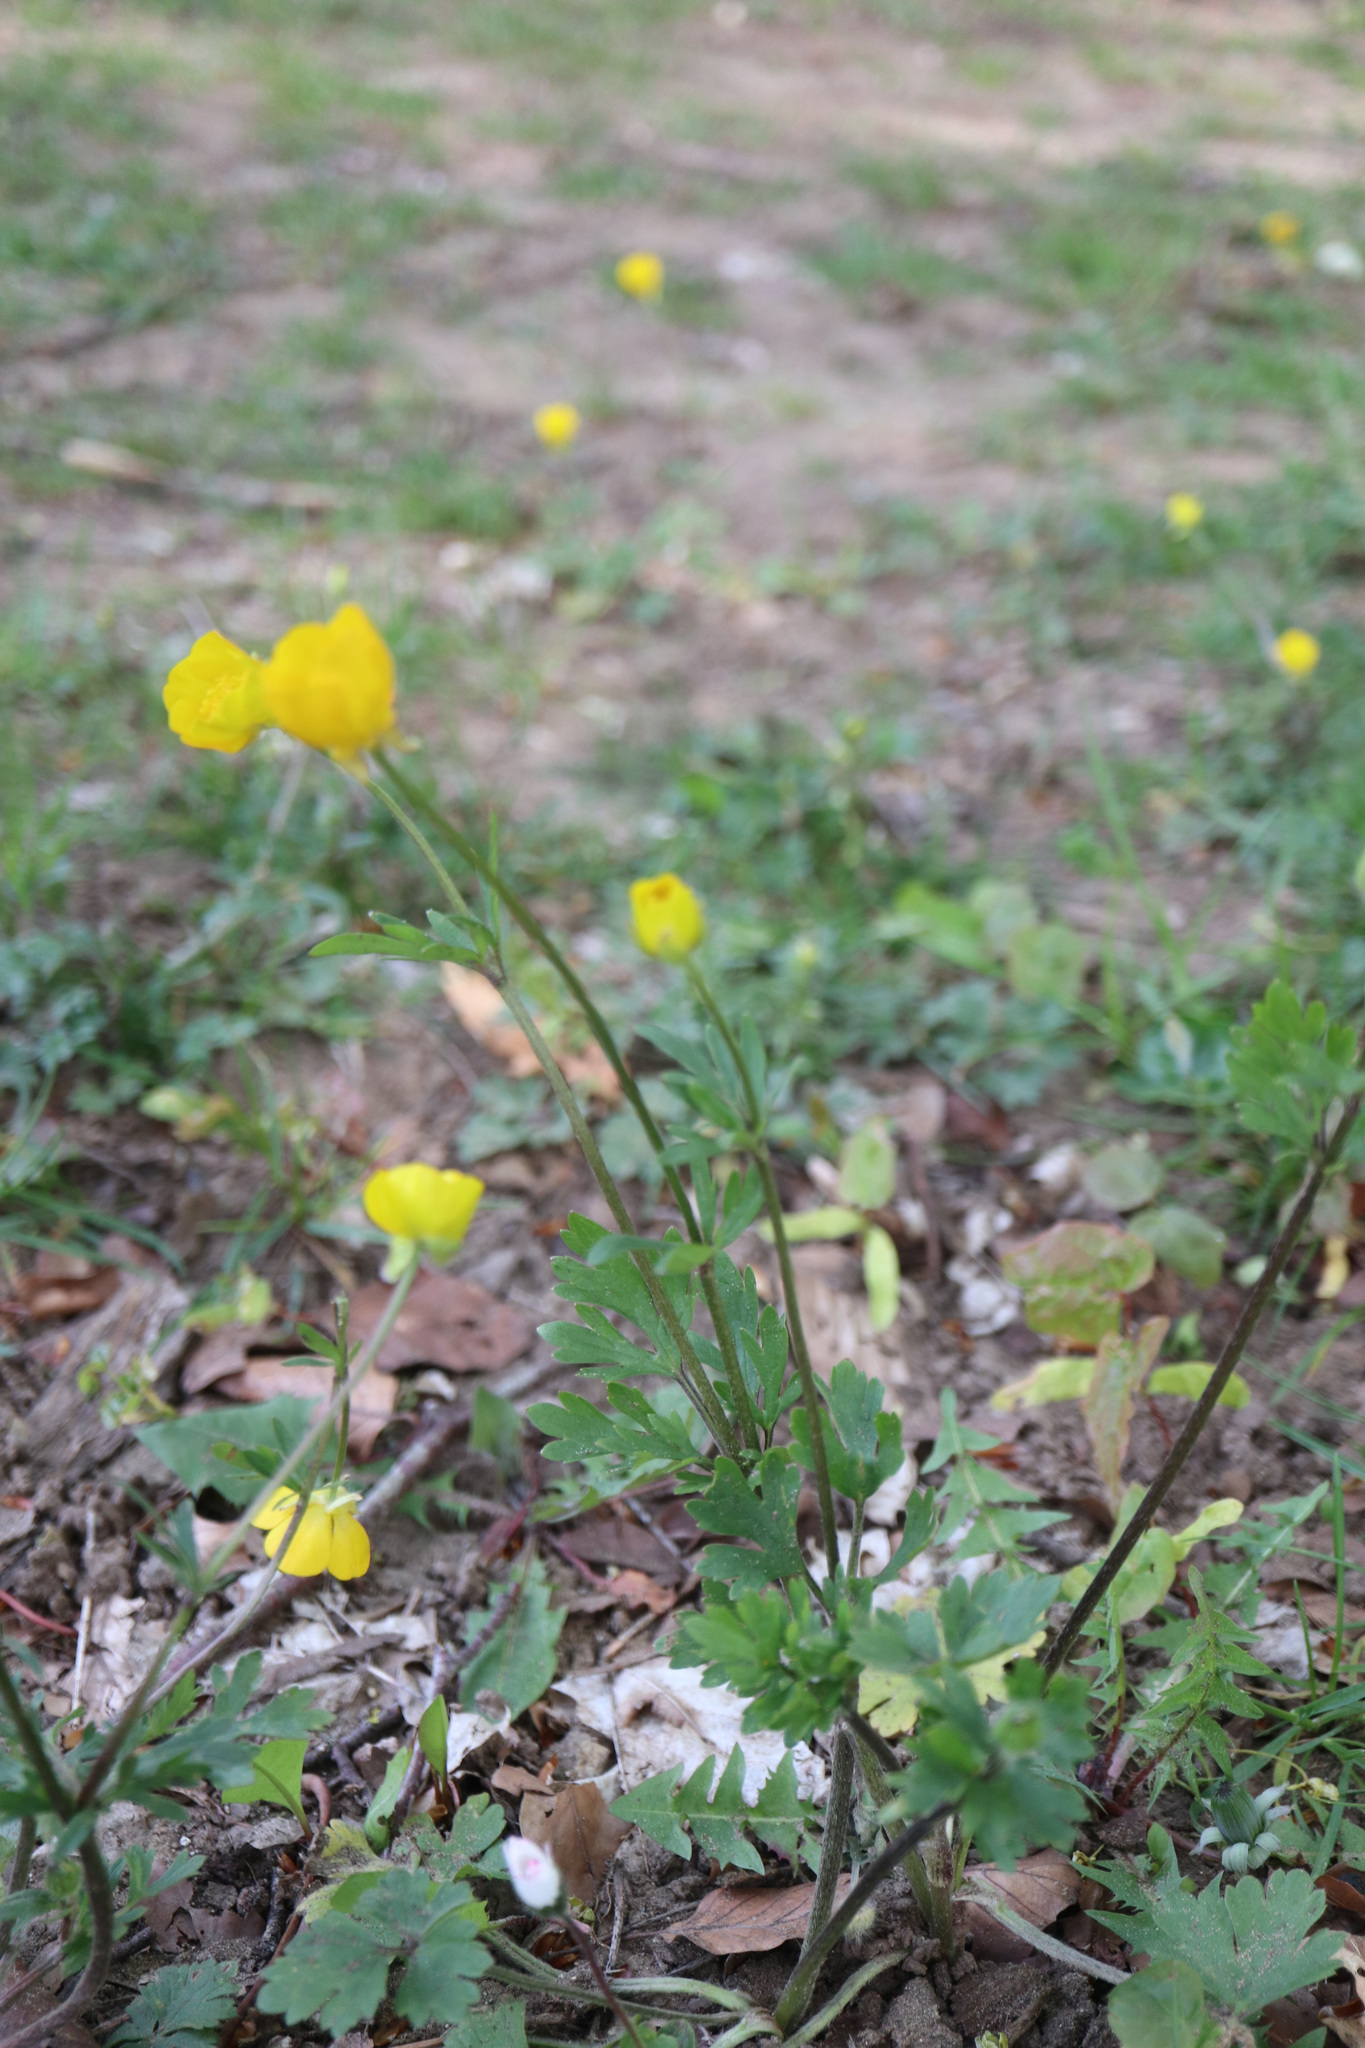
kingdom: Plantae
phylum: Tracheophyta
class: Magnoliopsida
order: Ranunculales
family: Ranunculaceae
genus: Ranunculus
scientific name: Ranunculus bulbosus
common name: Bulbous buttercup
